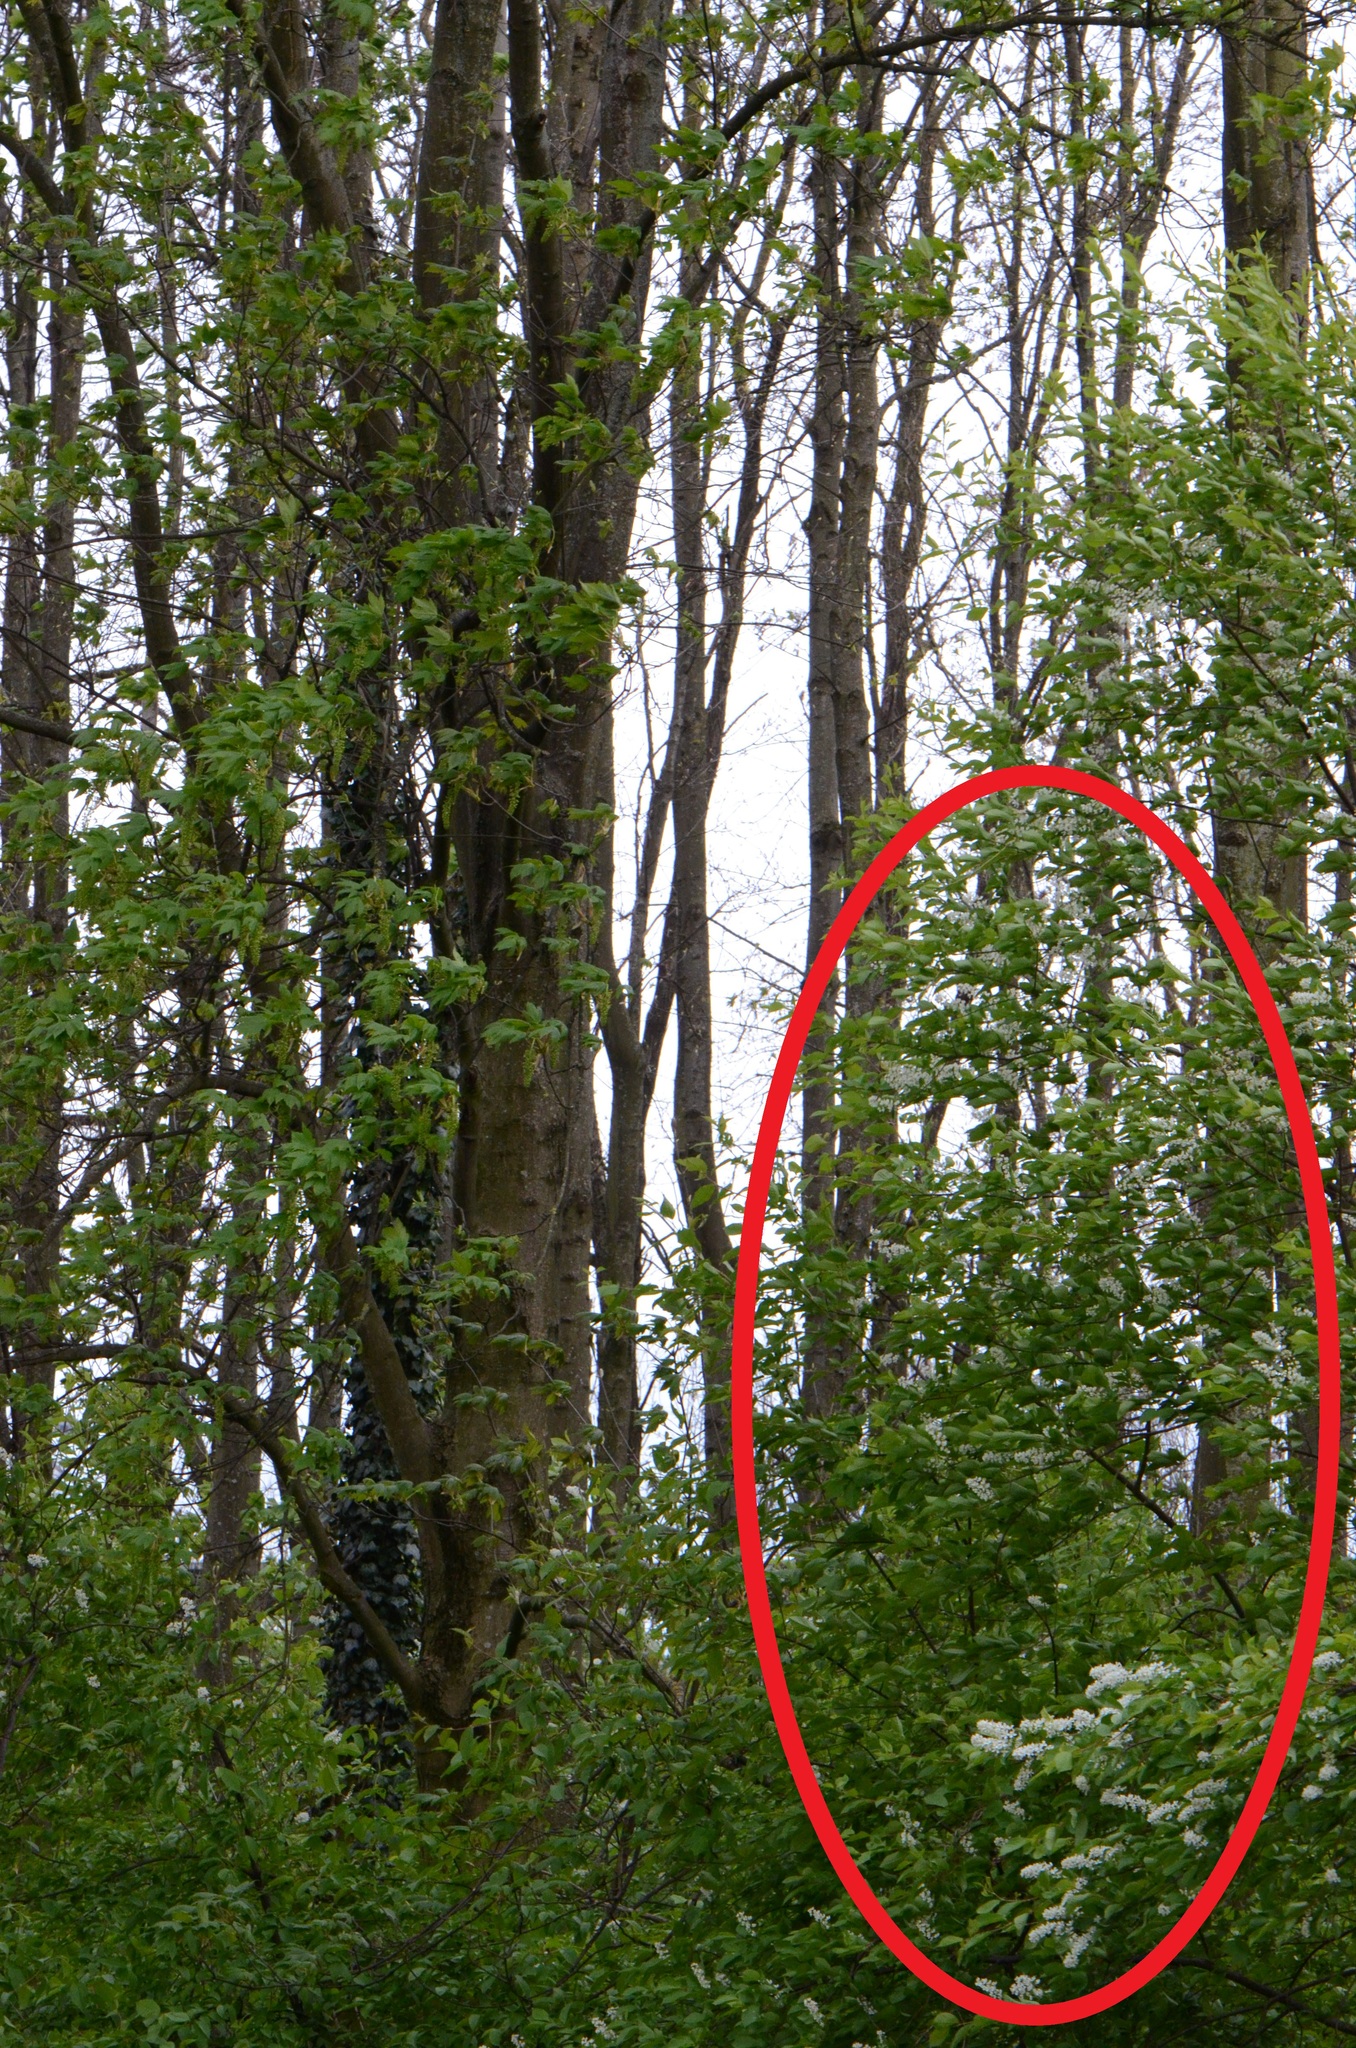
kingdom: Plantae
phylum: Tracheophyta
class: Magnoliopsida
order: Rosales
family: Rosaceae
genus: Prunus
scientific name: Prunus padus
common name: Bird cherry
